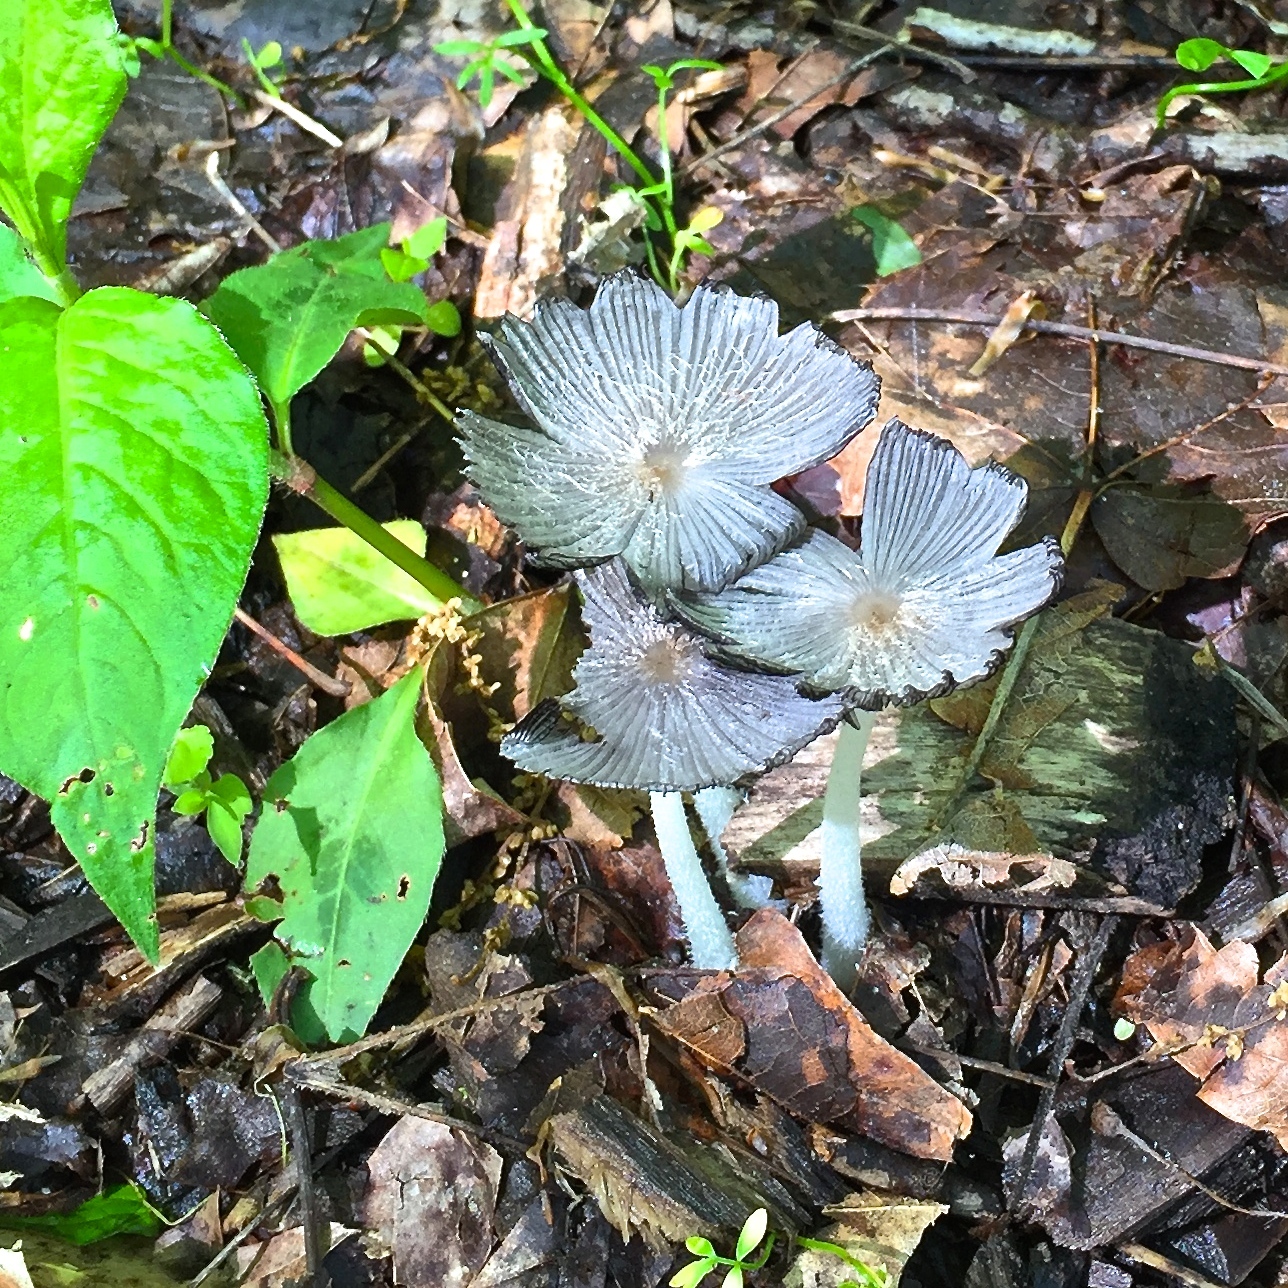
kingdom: Fungi
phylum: Basidiomycota
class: Agaricomycetes
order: Agaricales
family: Psathyrellaceae
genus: Coprinopsis
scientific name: Coprinopsis lagopus
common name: Hare'sfoot inkcap
